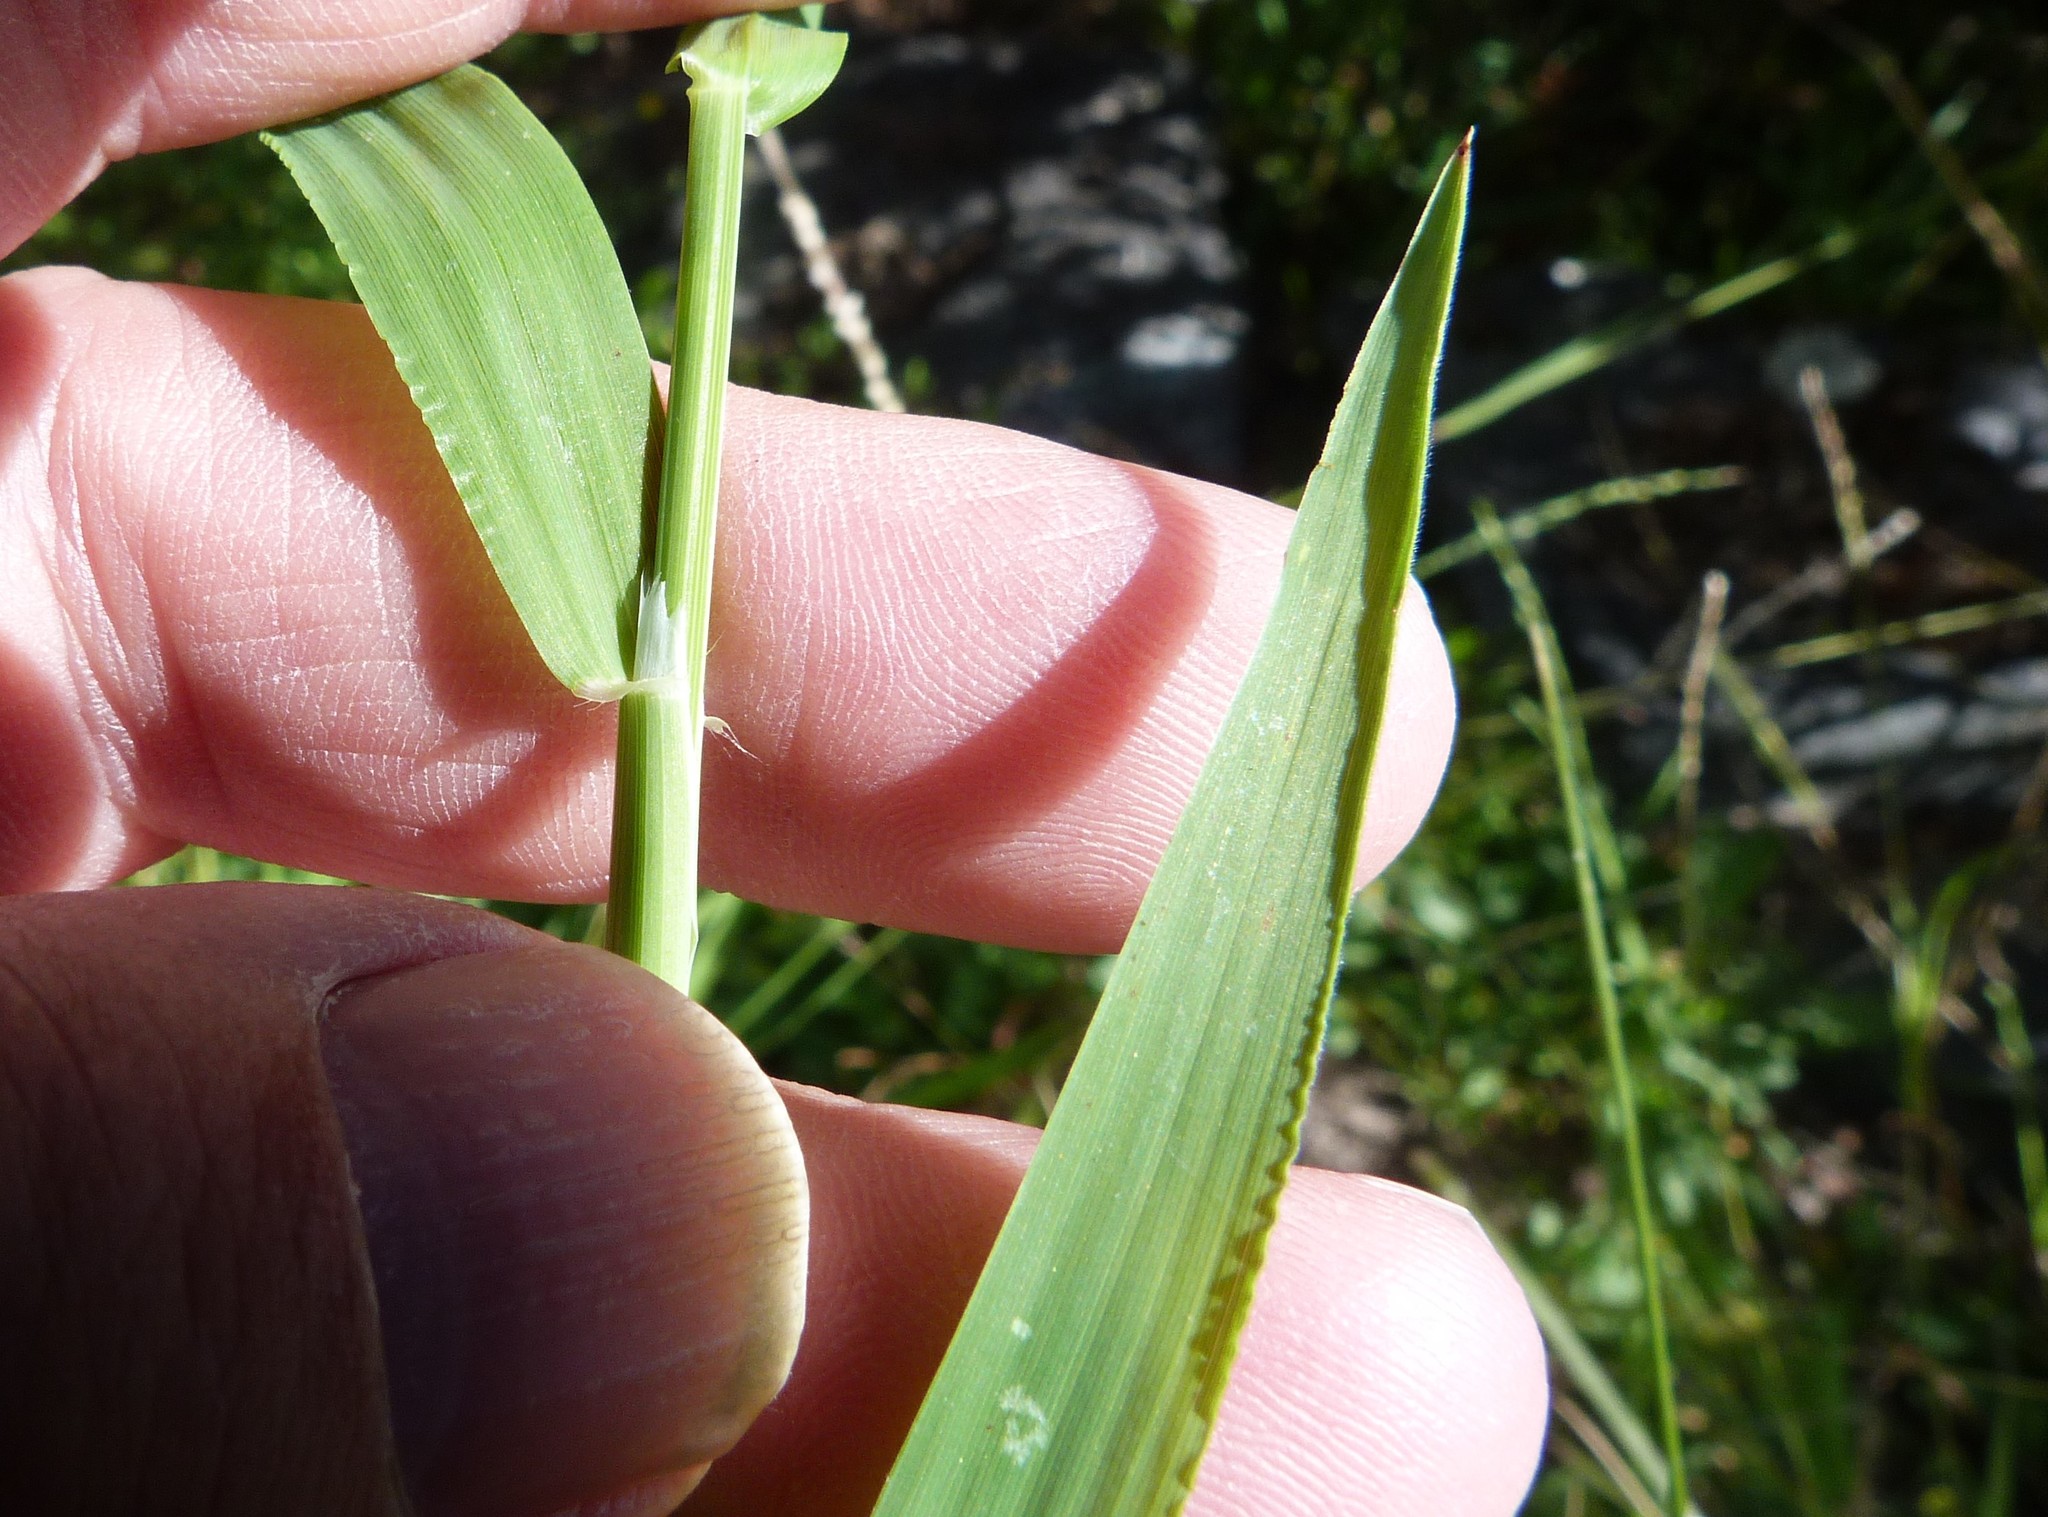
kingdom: Plantae
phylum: Tracheophyta
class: Liliopsida
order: Poales
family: Poaceae
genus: Ehrharta
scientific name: Ehrharta erecta
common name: Panic veldtgrass
